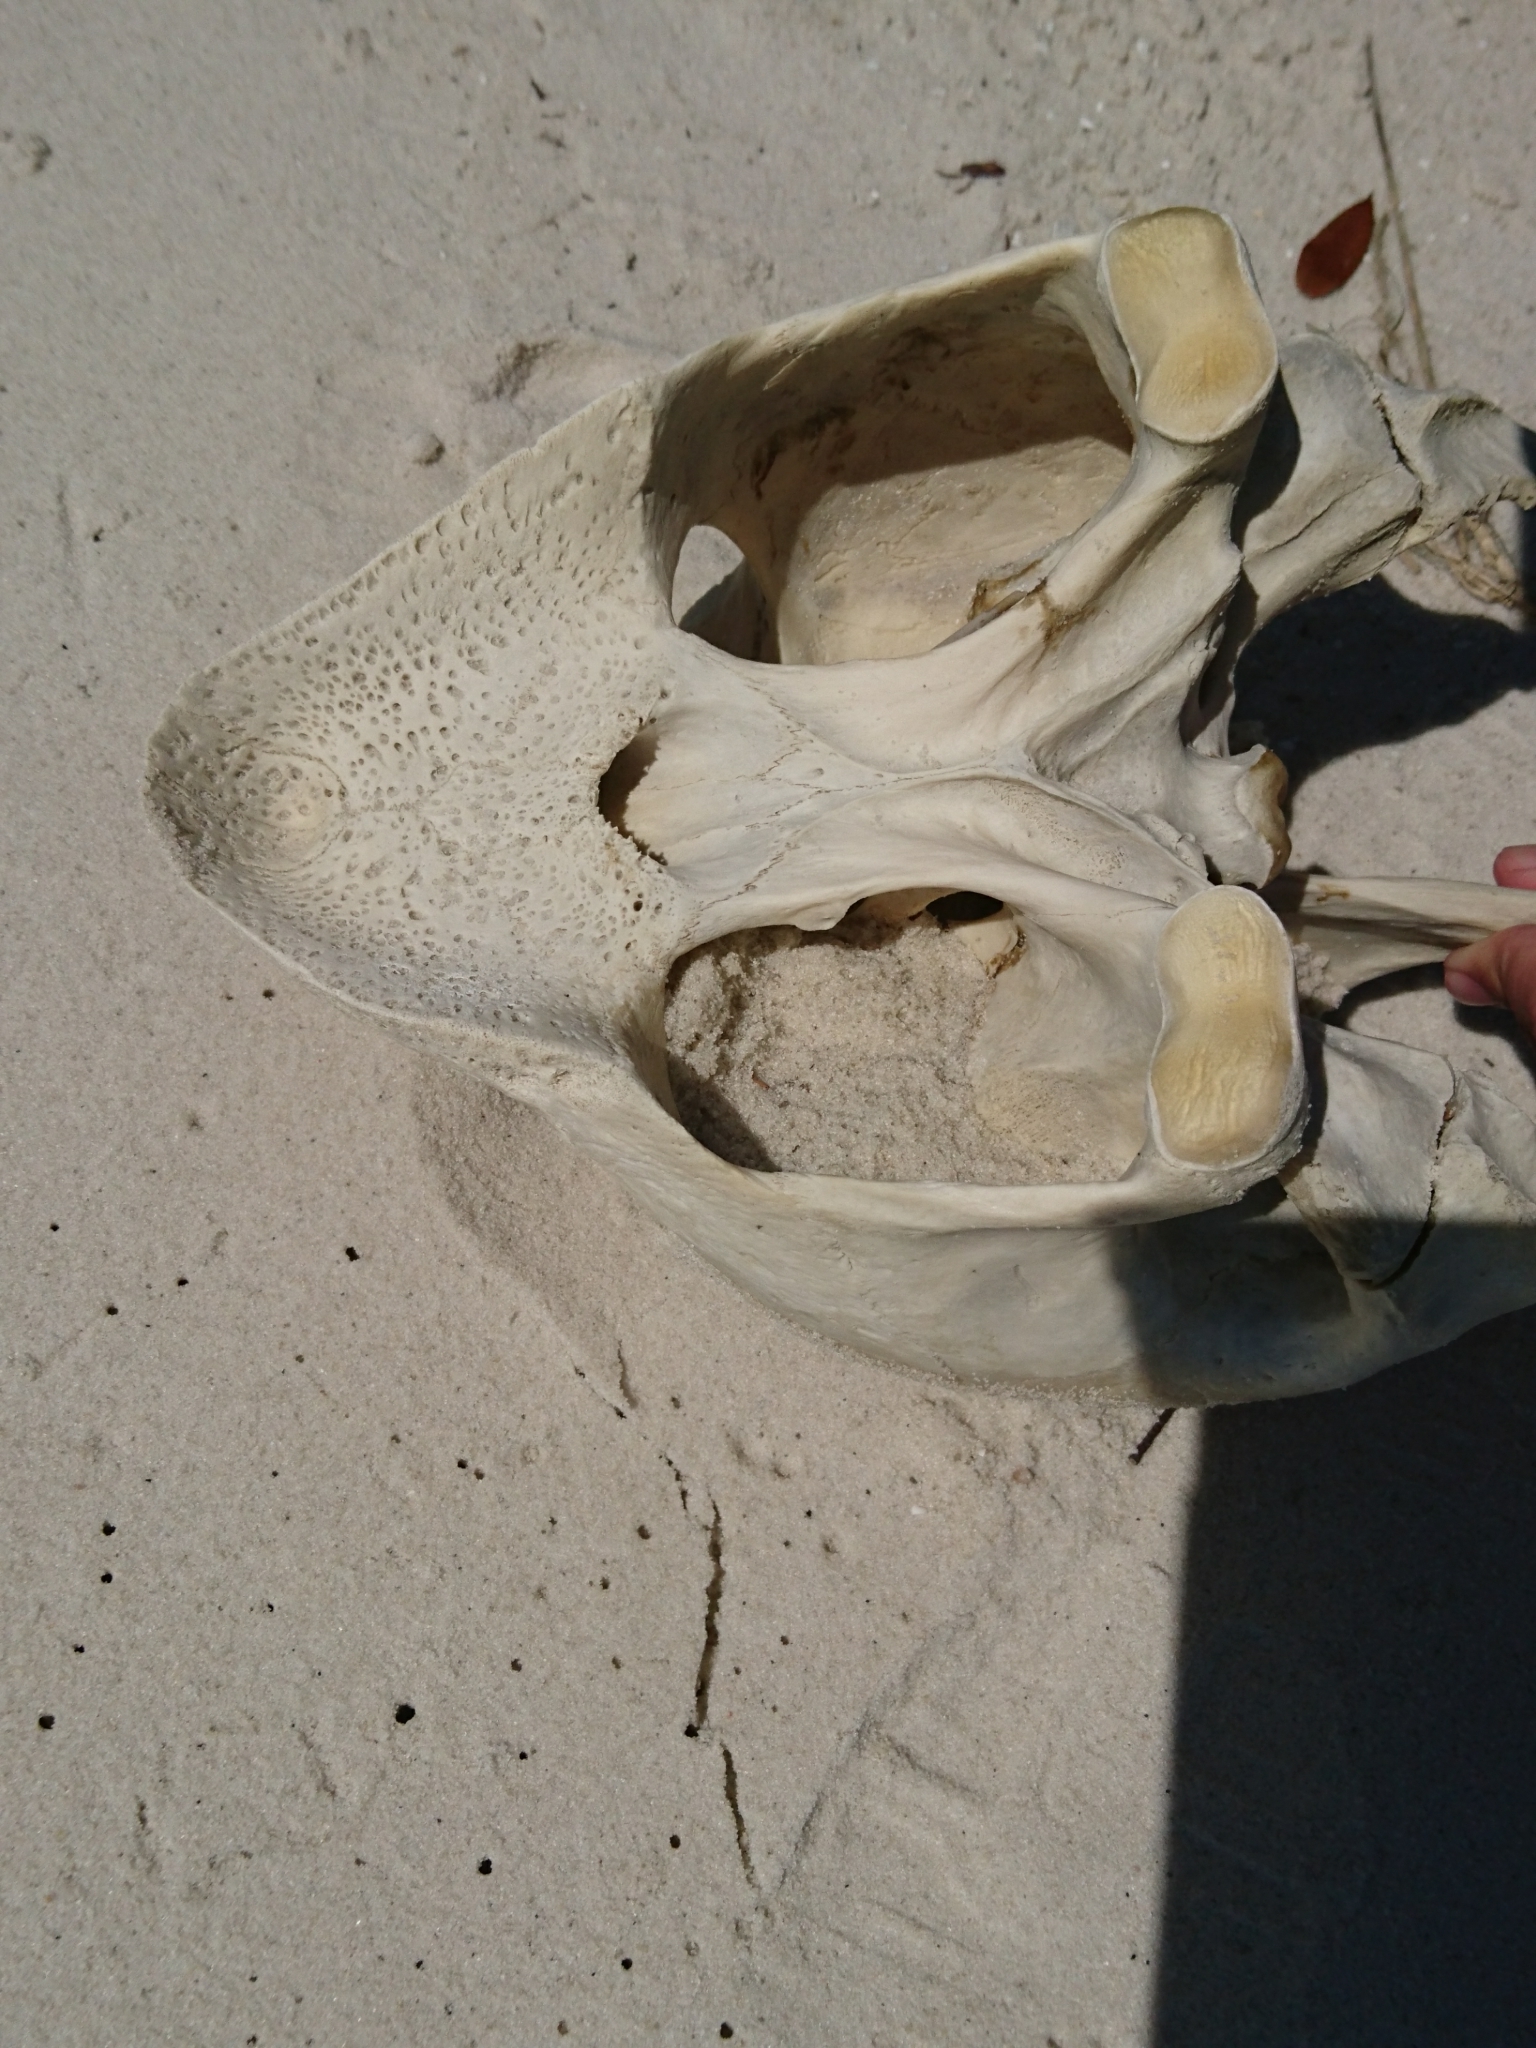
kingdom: Animalia
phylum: Chordata
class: Testudines
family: Cheloniidae
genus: Caretta
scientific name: Caretta caretta
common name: Loggerhead sea turtle
